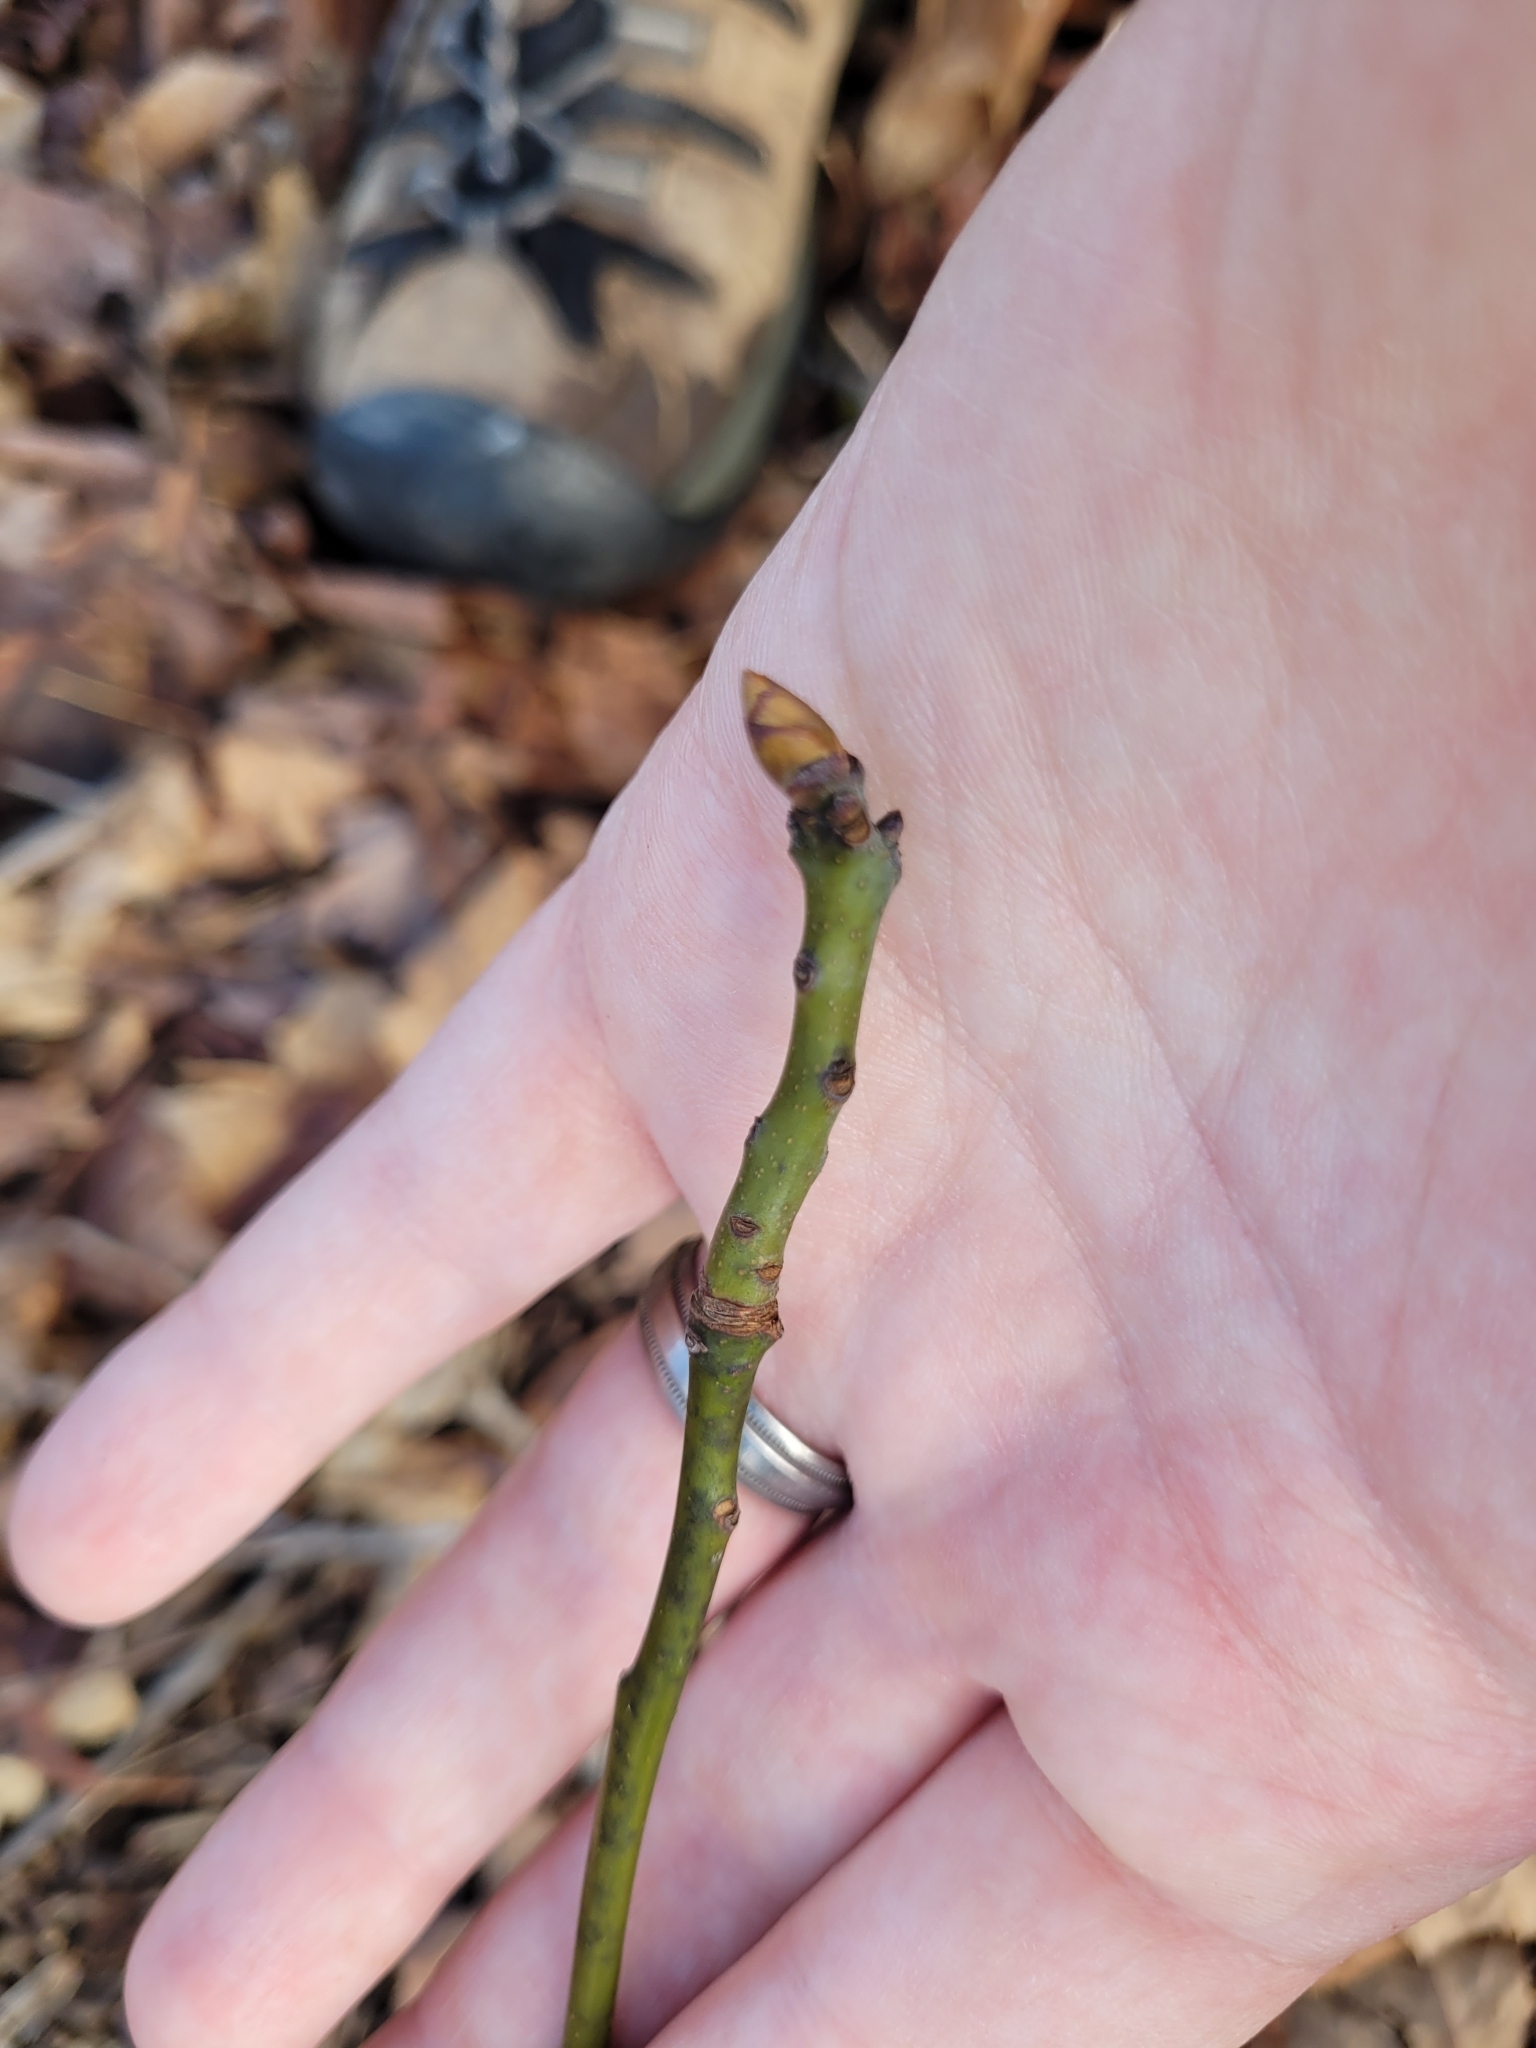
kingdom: Plantae
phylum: Tracheophyta
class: Magnoliopsida
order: Laurales
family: Lauraceae
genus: Sassafras
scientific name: Sassafras albidum
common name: Sassafras
